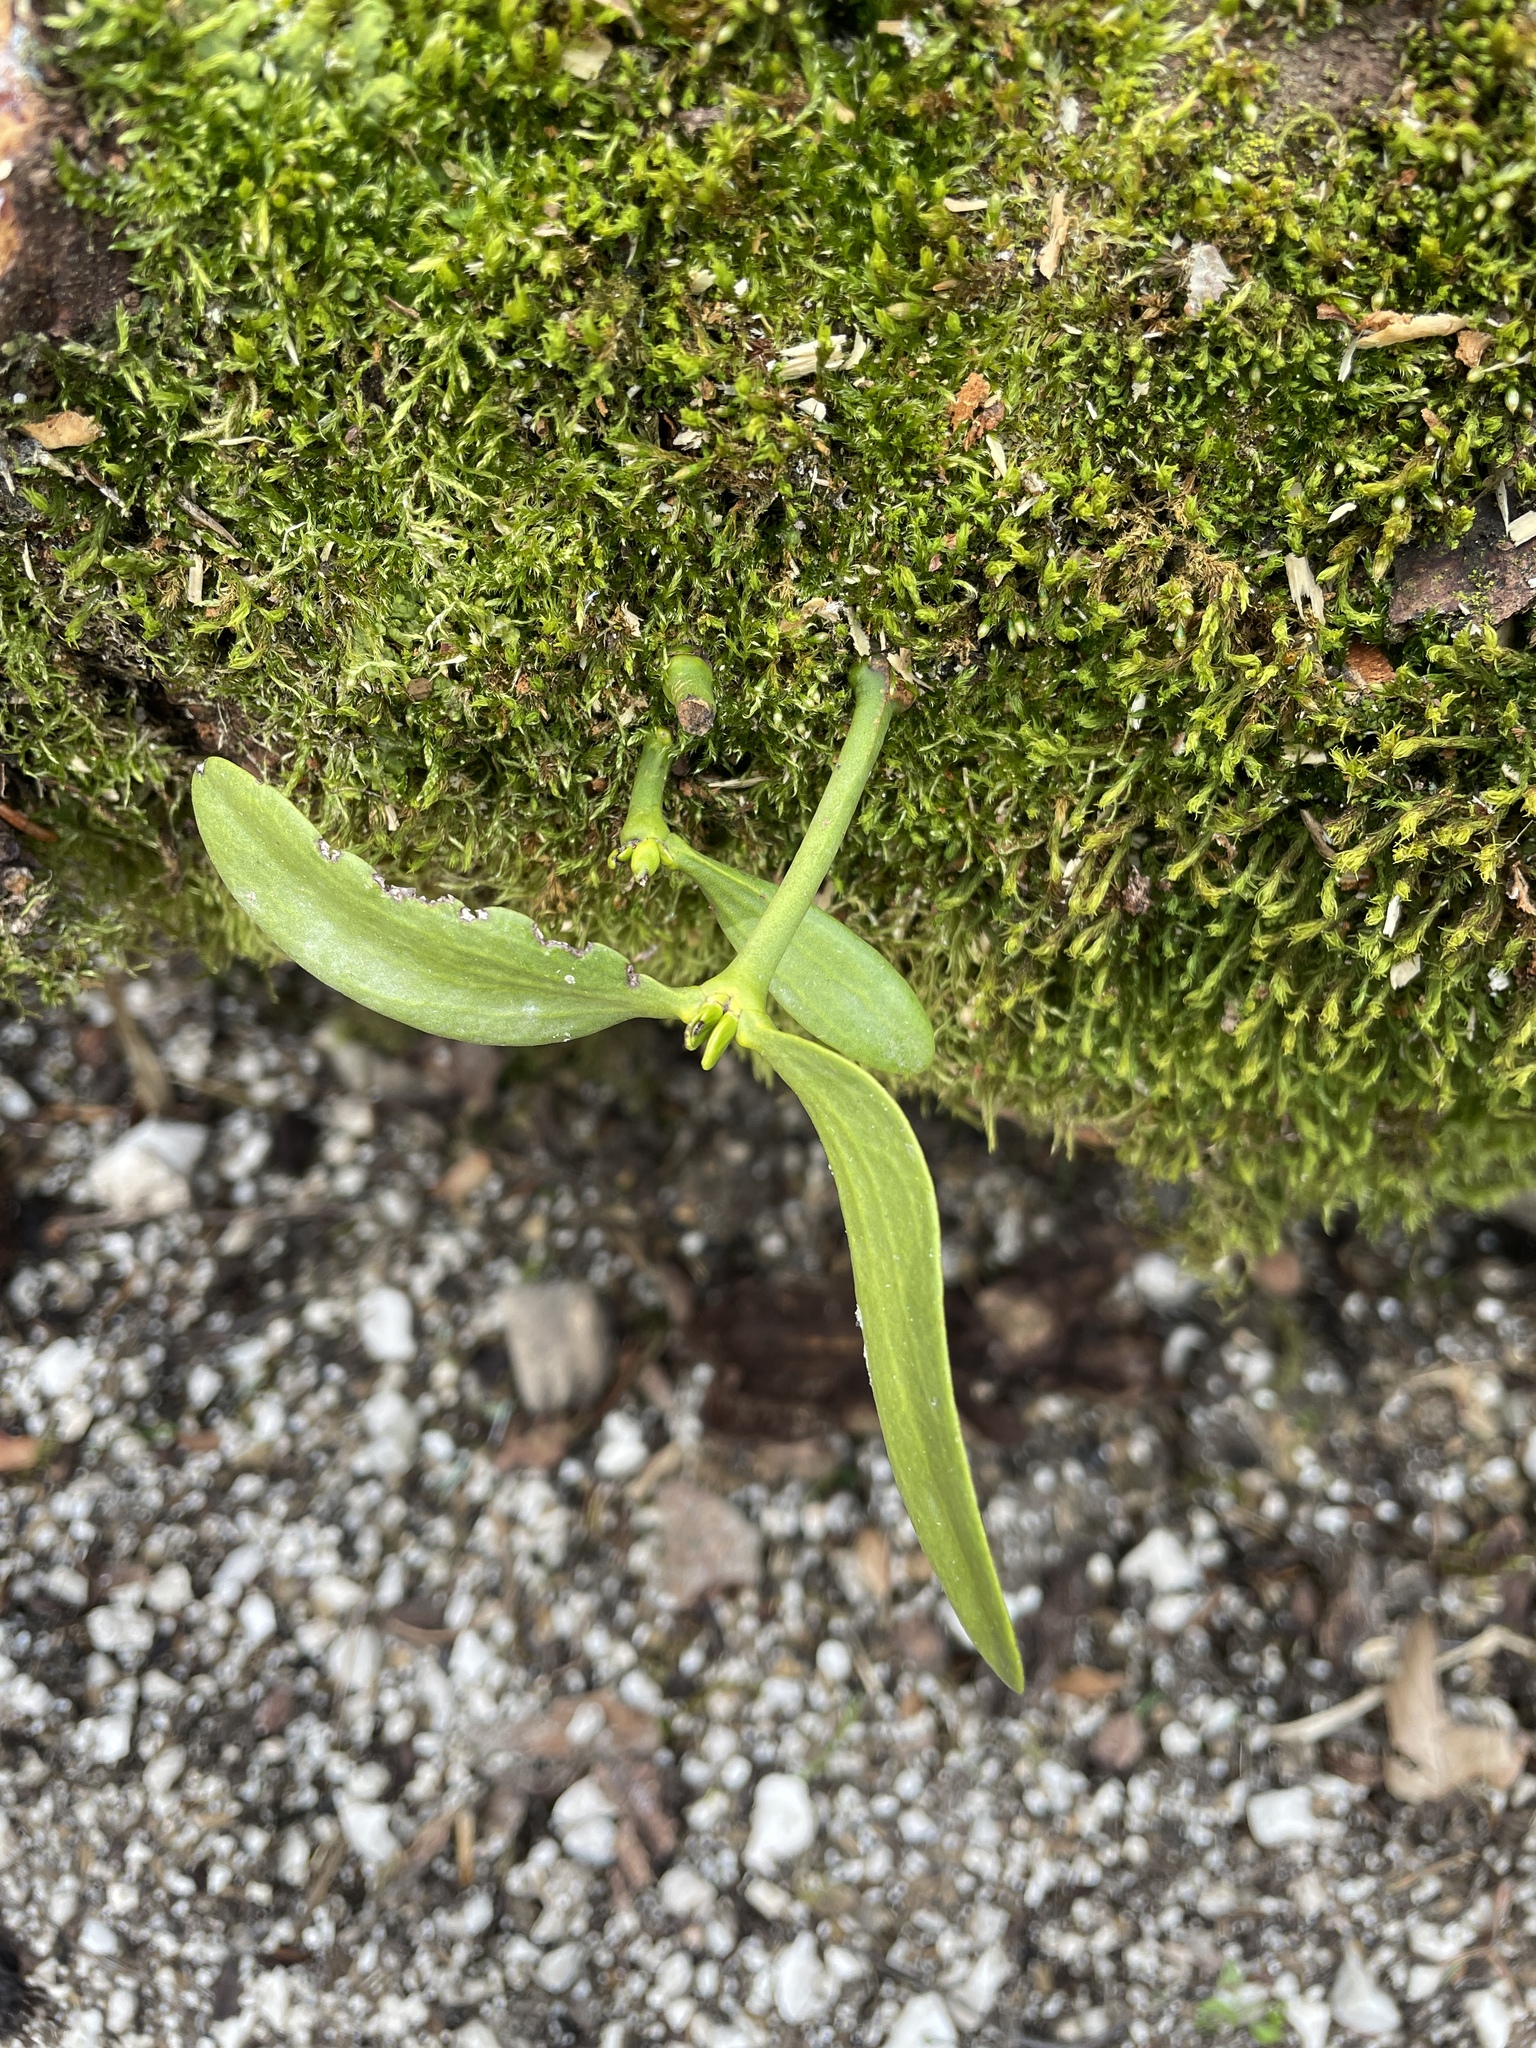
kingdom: Plantae
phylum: Tracheophyta
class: Magnoliopsida
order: Santalales
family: Viscaceae
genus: Viscum
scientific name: Viscum album
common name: Mistletoe
